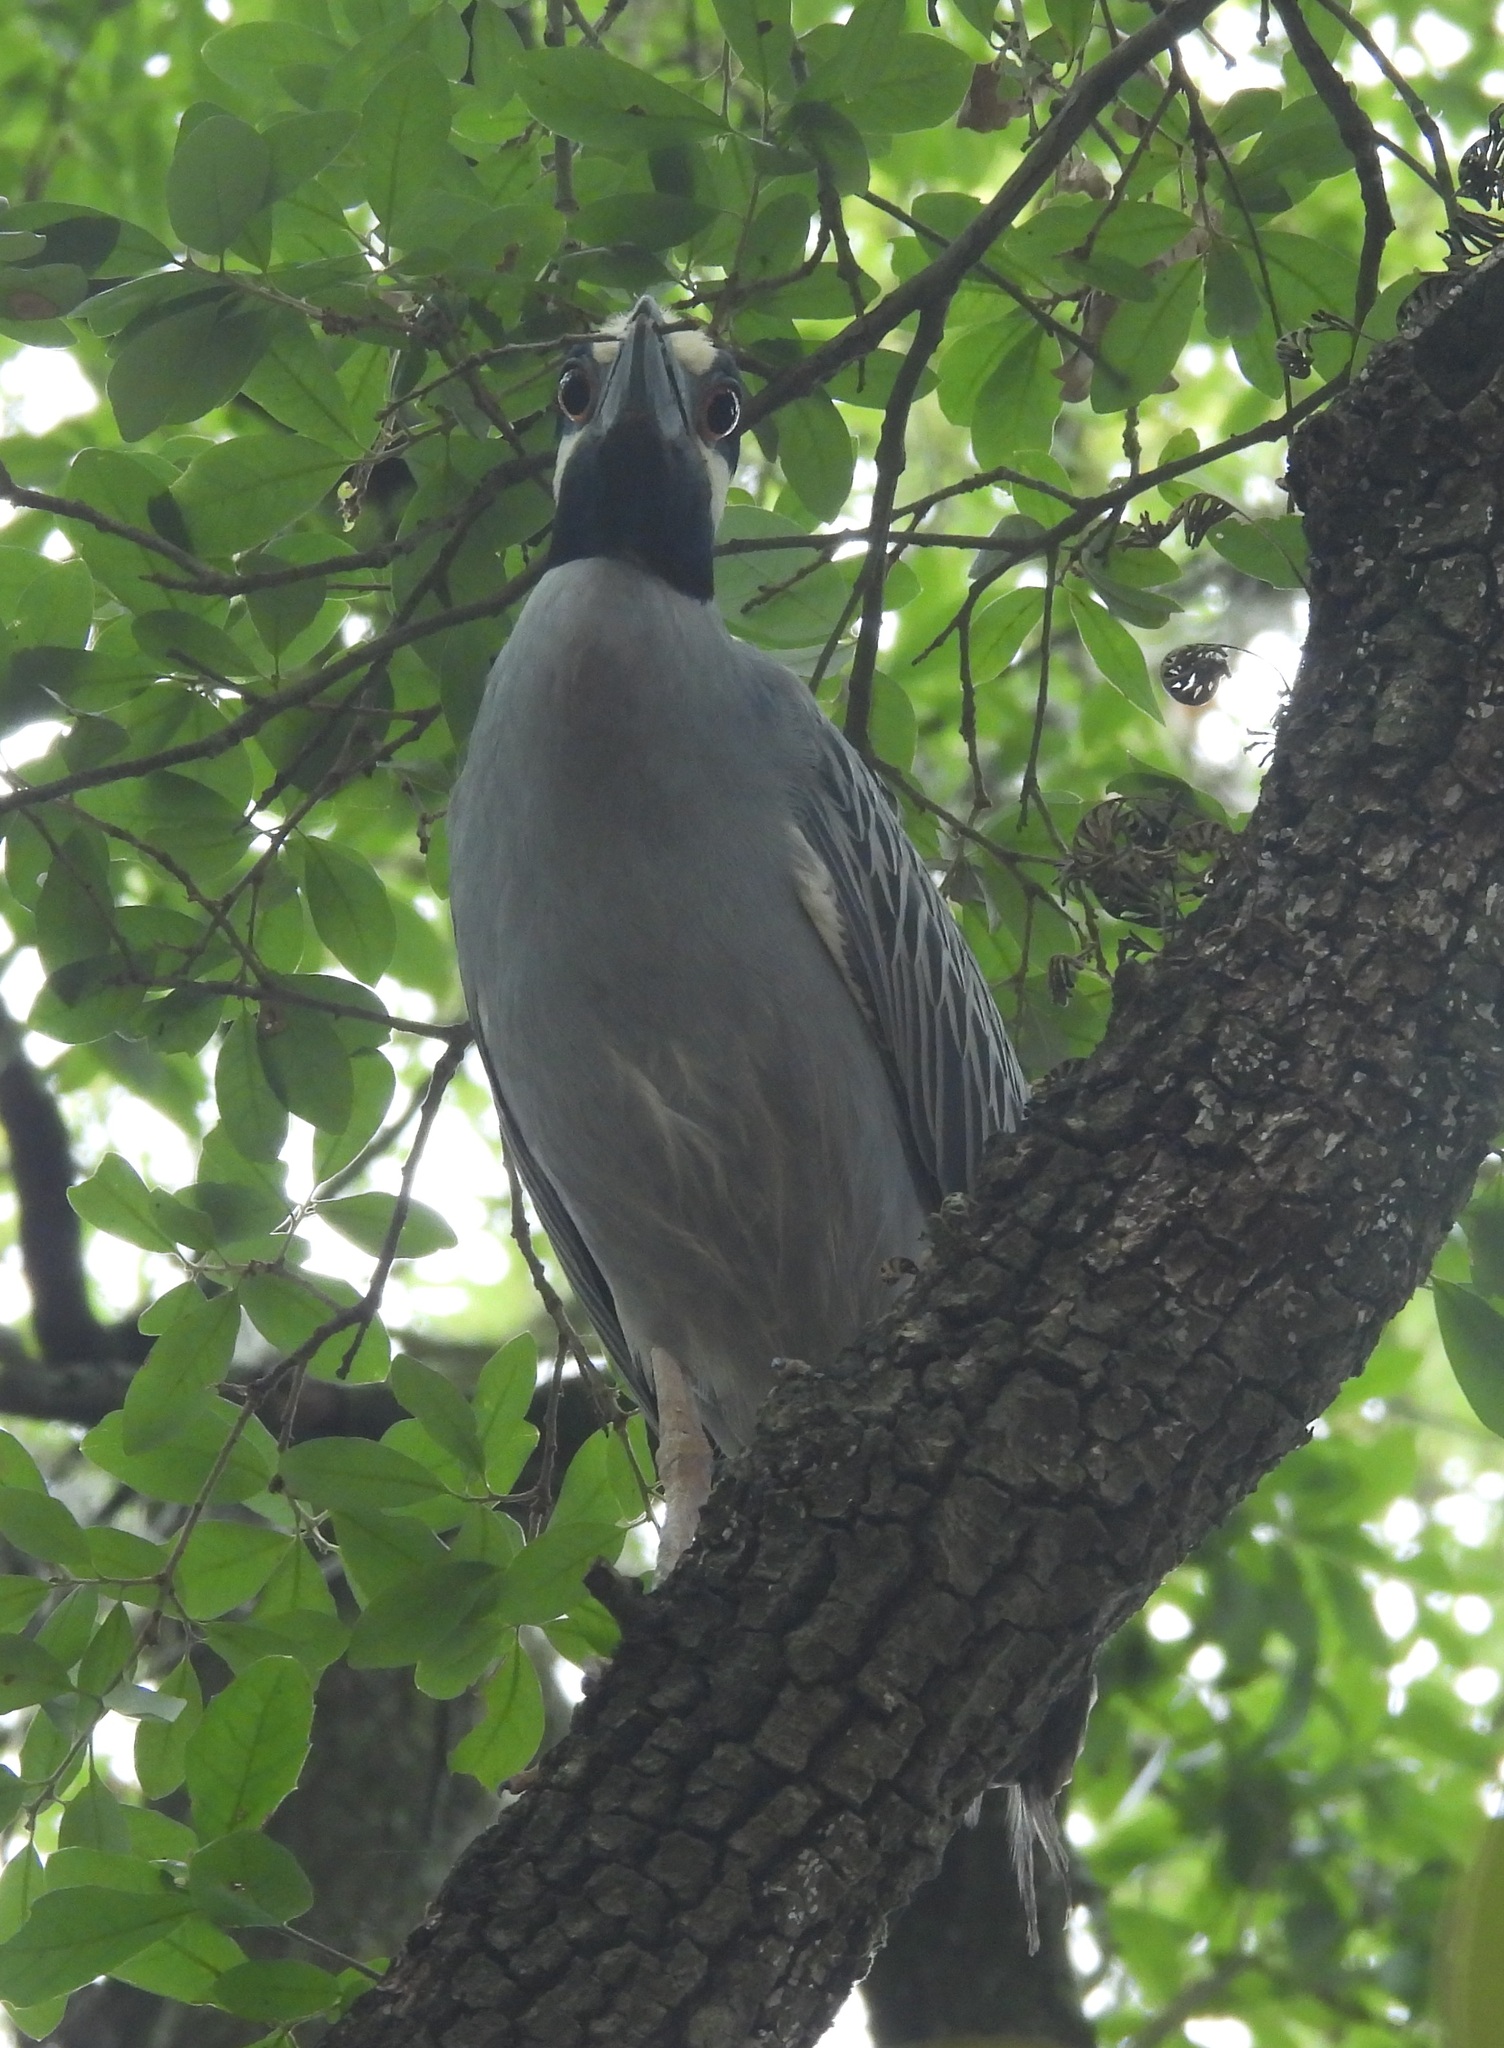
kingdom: Animalia
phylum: Chordata
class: Aves
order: Pelecaniformes
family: Ardeidae
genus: Nyctanassa
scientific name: Nyctanassa violacea
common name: Yellow-crowned night heron
